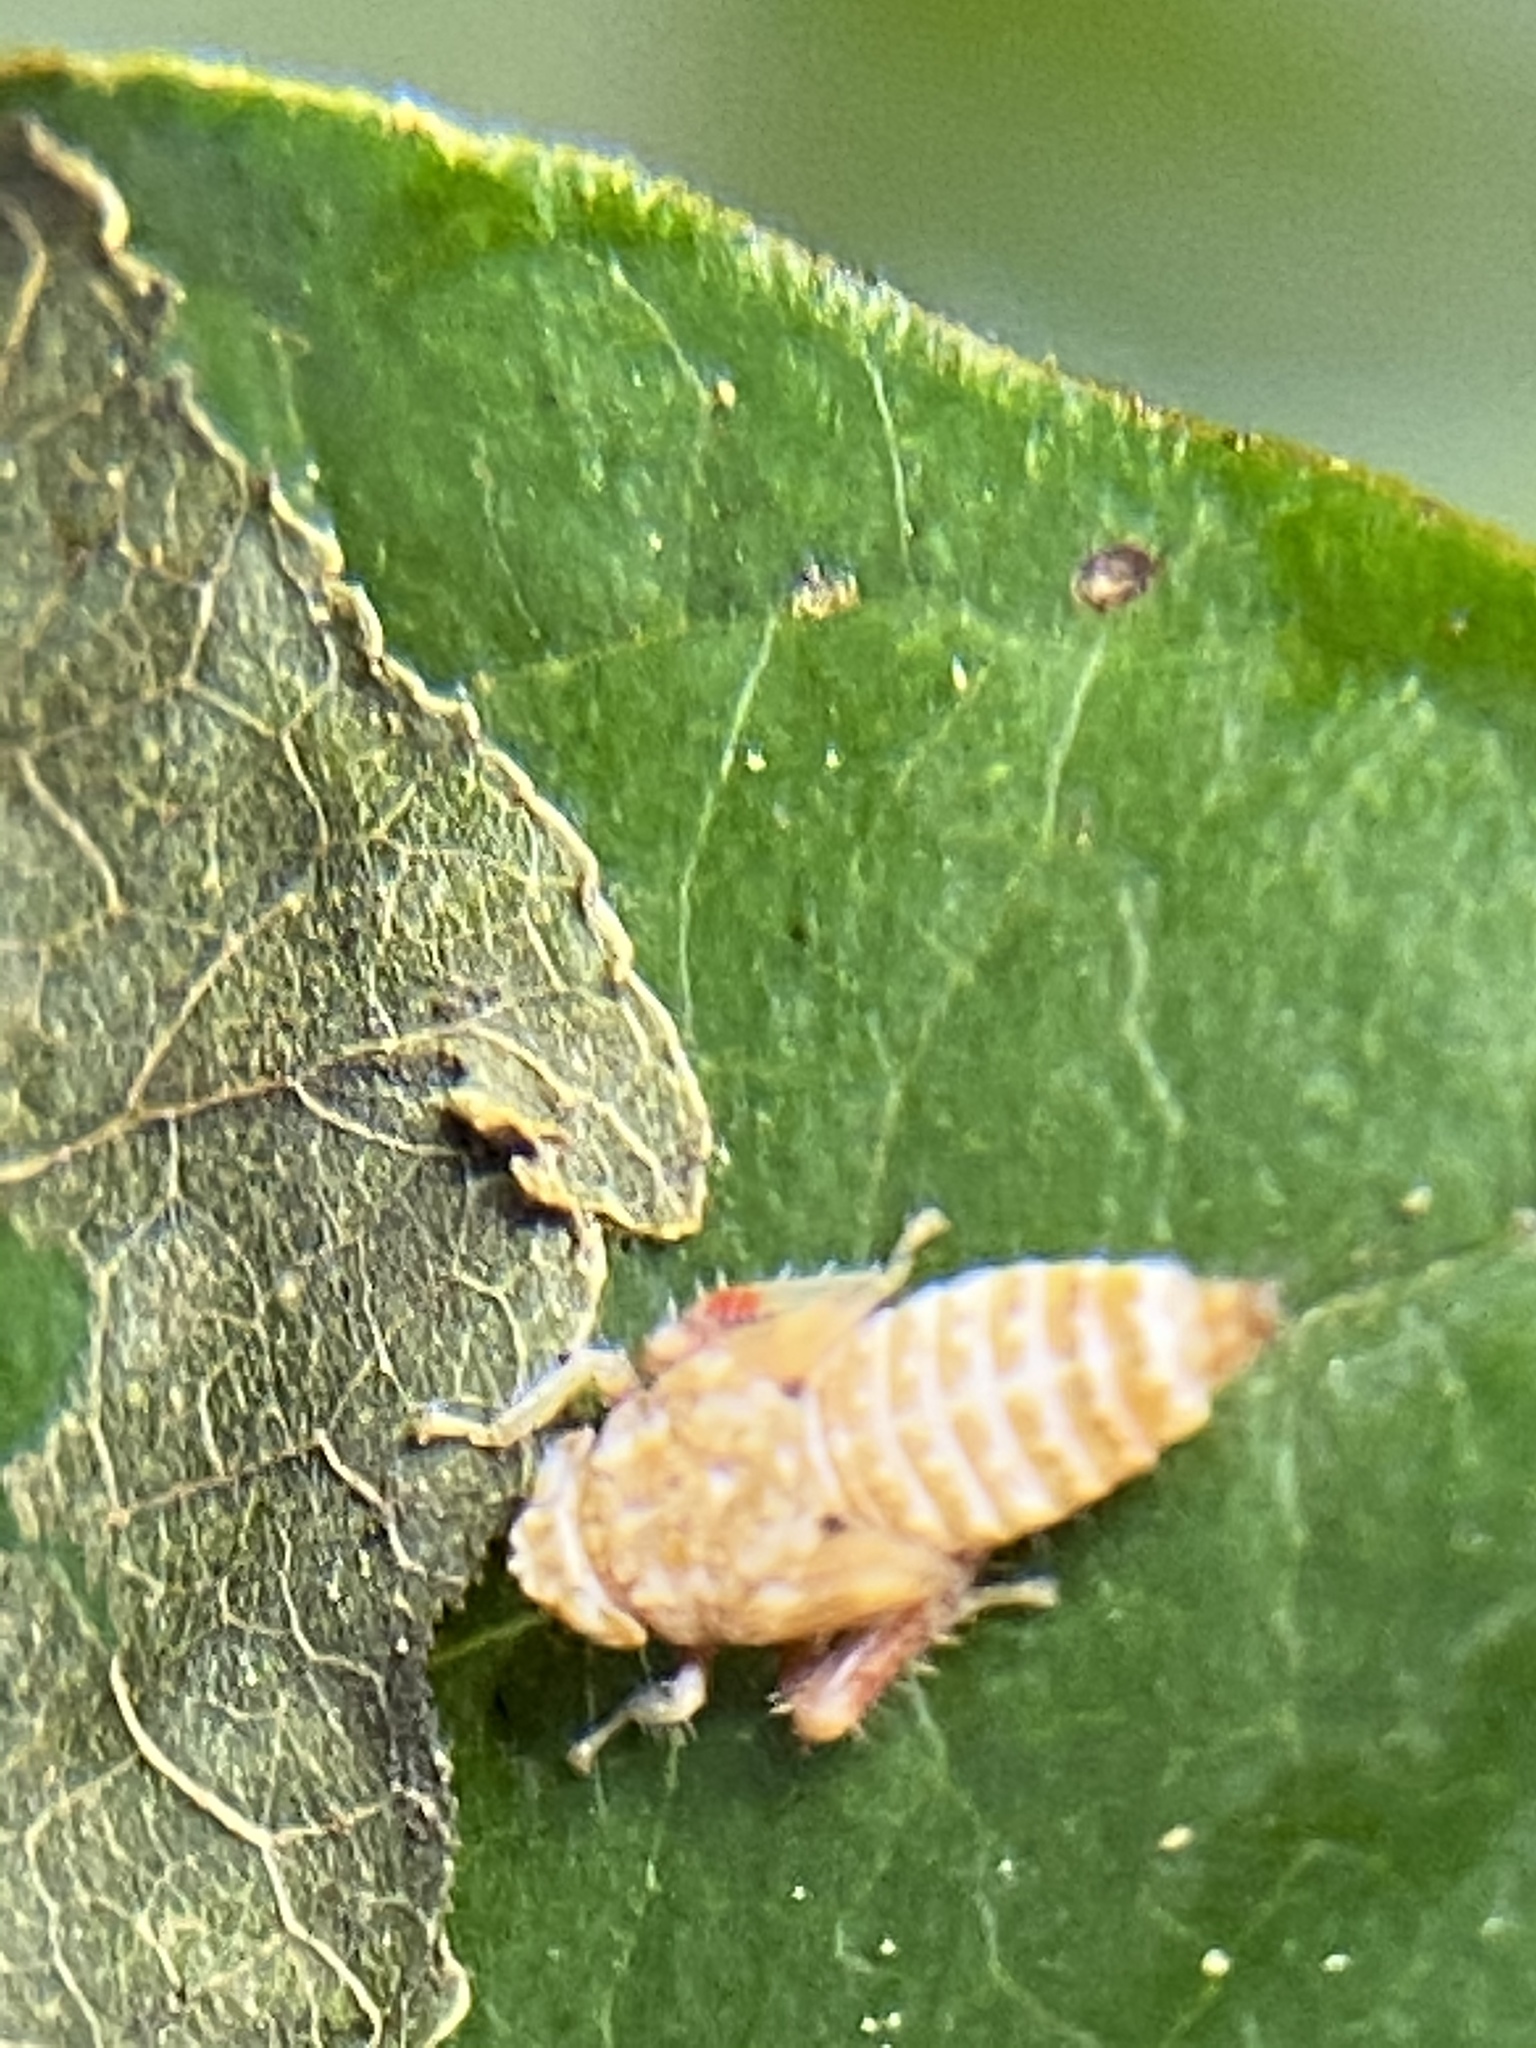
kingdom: Animalia
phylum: Arthropoda
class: Insecta
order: Hemiptera
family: Cicadellidae
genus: Orientus
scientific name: Orientus ishidae
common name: Japanese leafhopper
